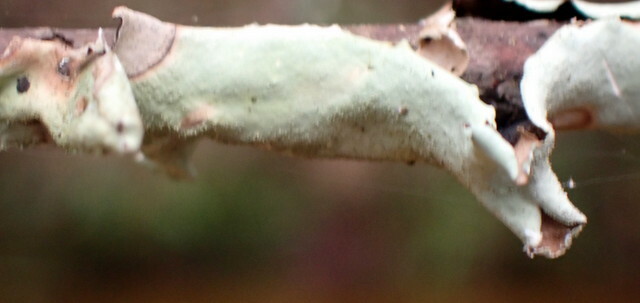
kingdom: Fungi
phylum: Ascomycota
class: Lecanoromycetes
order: Lecanorales
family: Parmeliaceae
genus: Parmotrema
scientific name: Parmotrema tinctorum
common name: Old gray ruffles
